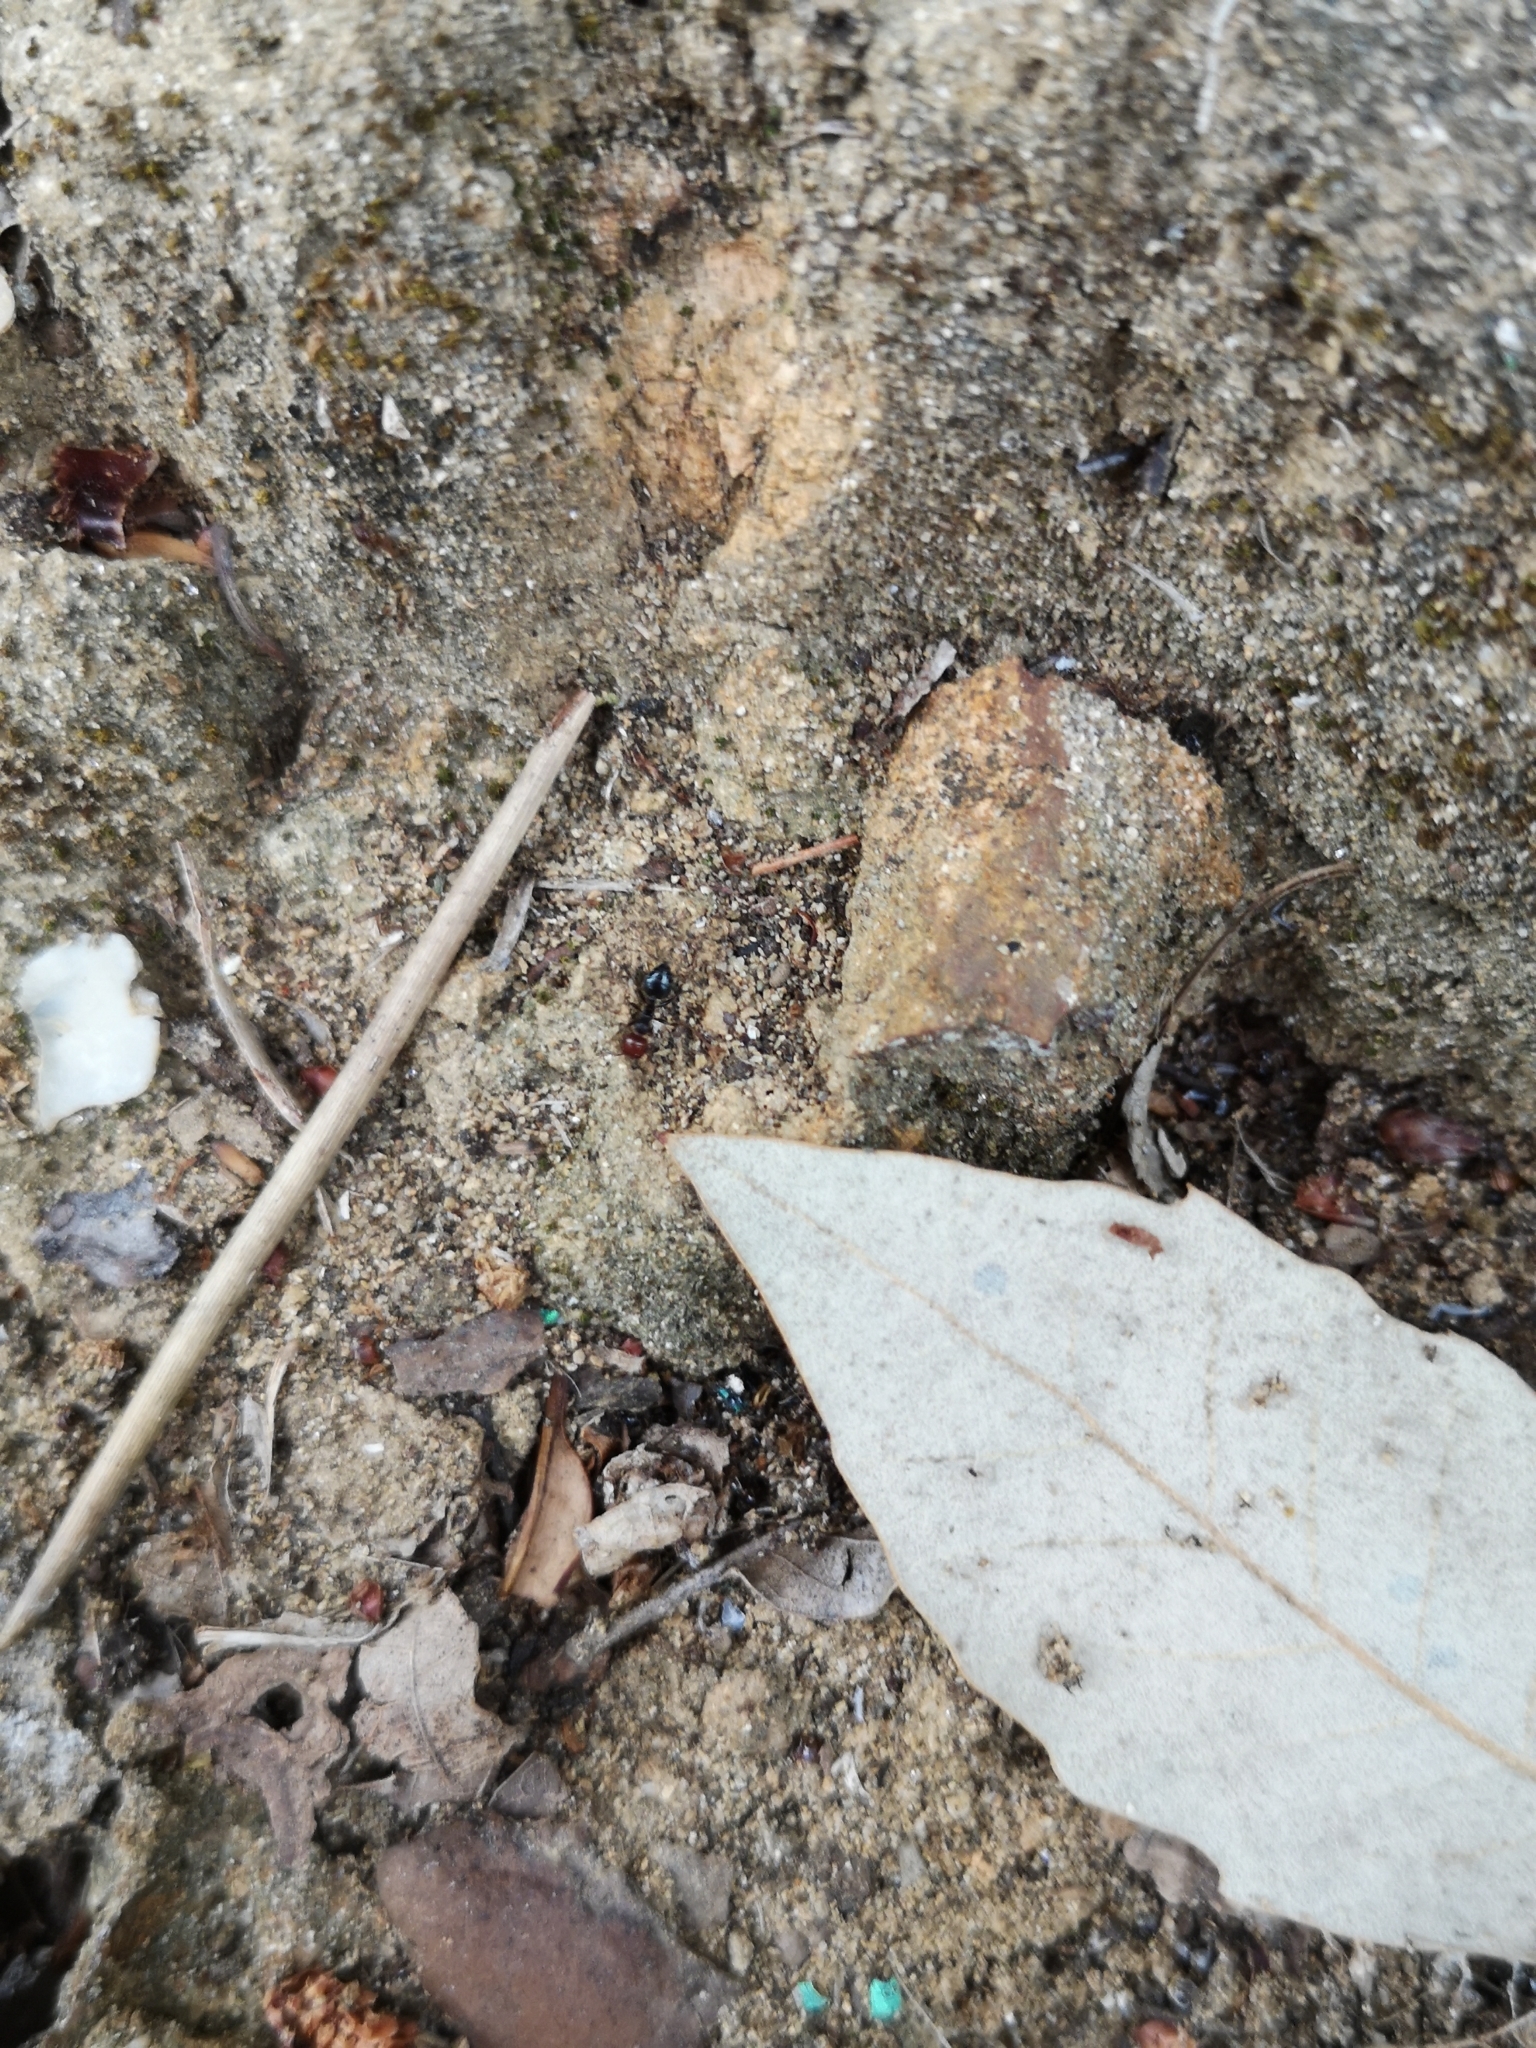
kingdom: Animalia
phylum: Arthropoda
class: Insecta
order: Hymenoptera
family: Formicidae
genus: Crematogaster
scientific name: Crematogaster scutellaris
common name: Fourmi du liège
